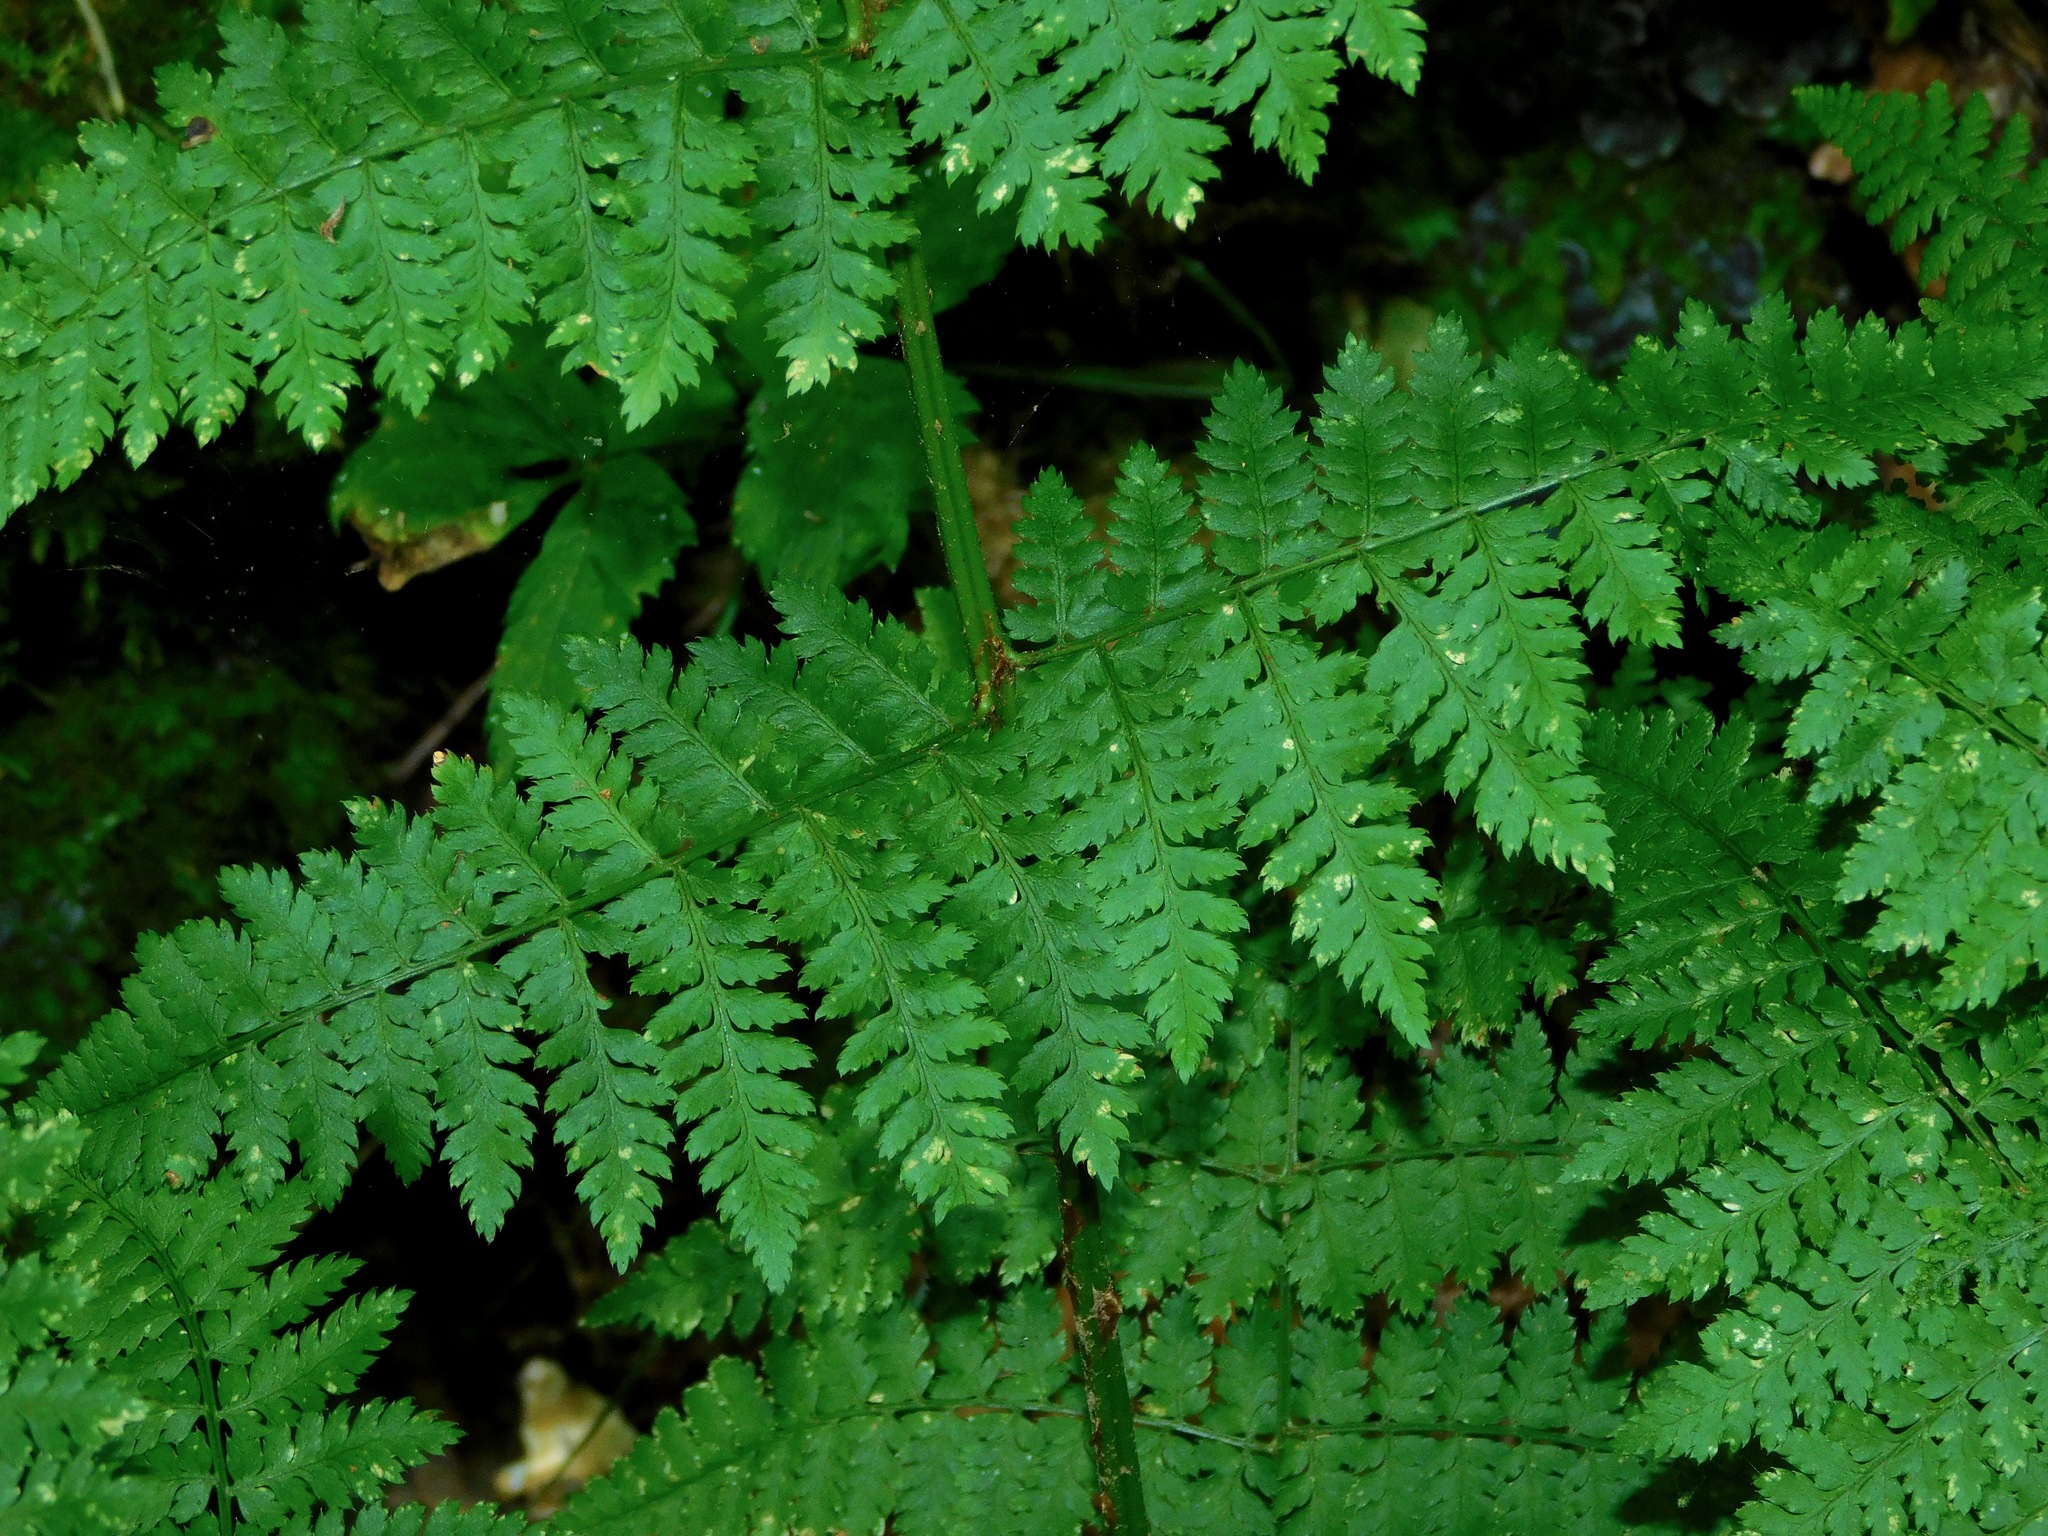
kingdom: Plantae
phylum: Tracheophyta
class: Polypodiopsida
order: Polypodiales
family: Dryopteridaceae
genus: Dryopteris
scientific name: Dryopteris intermedia
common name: Evergreen wood fern
